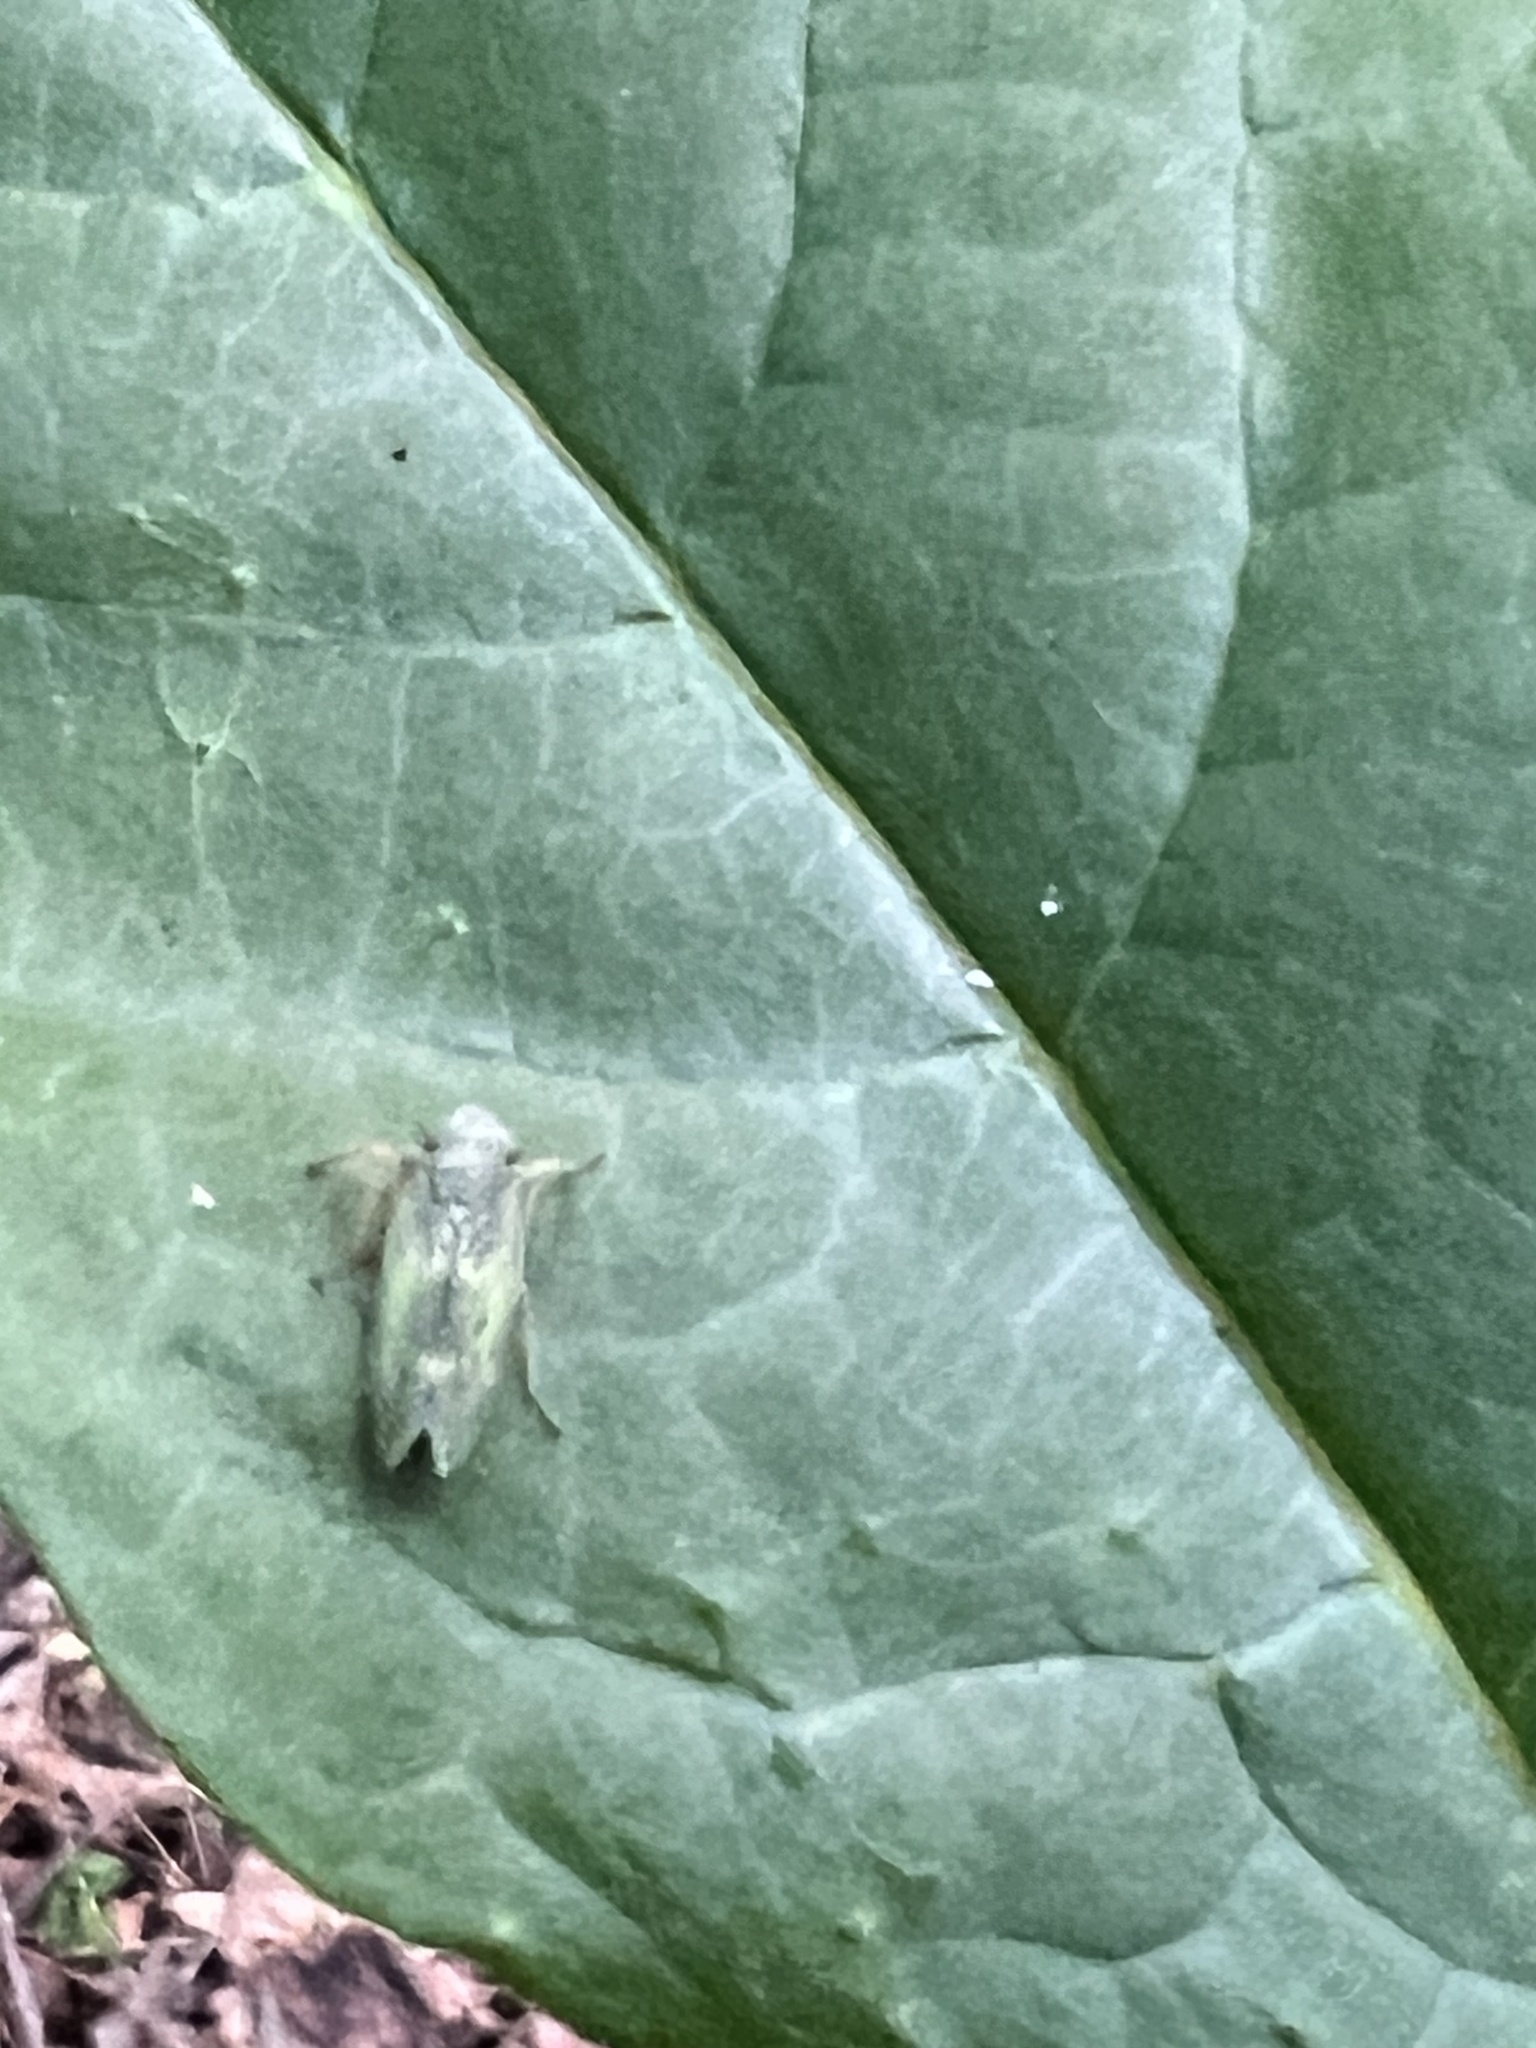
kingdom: Animalia
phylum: Arthropoda
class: Insecta
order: Hemiptera
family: Cicadellidae
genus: Jikradia
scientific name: Jikradia olitoria
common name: Coppery leafhopper
